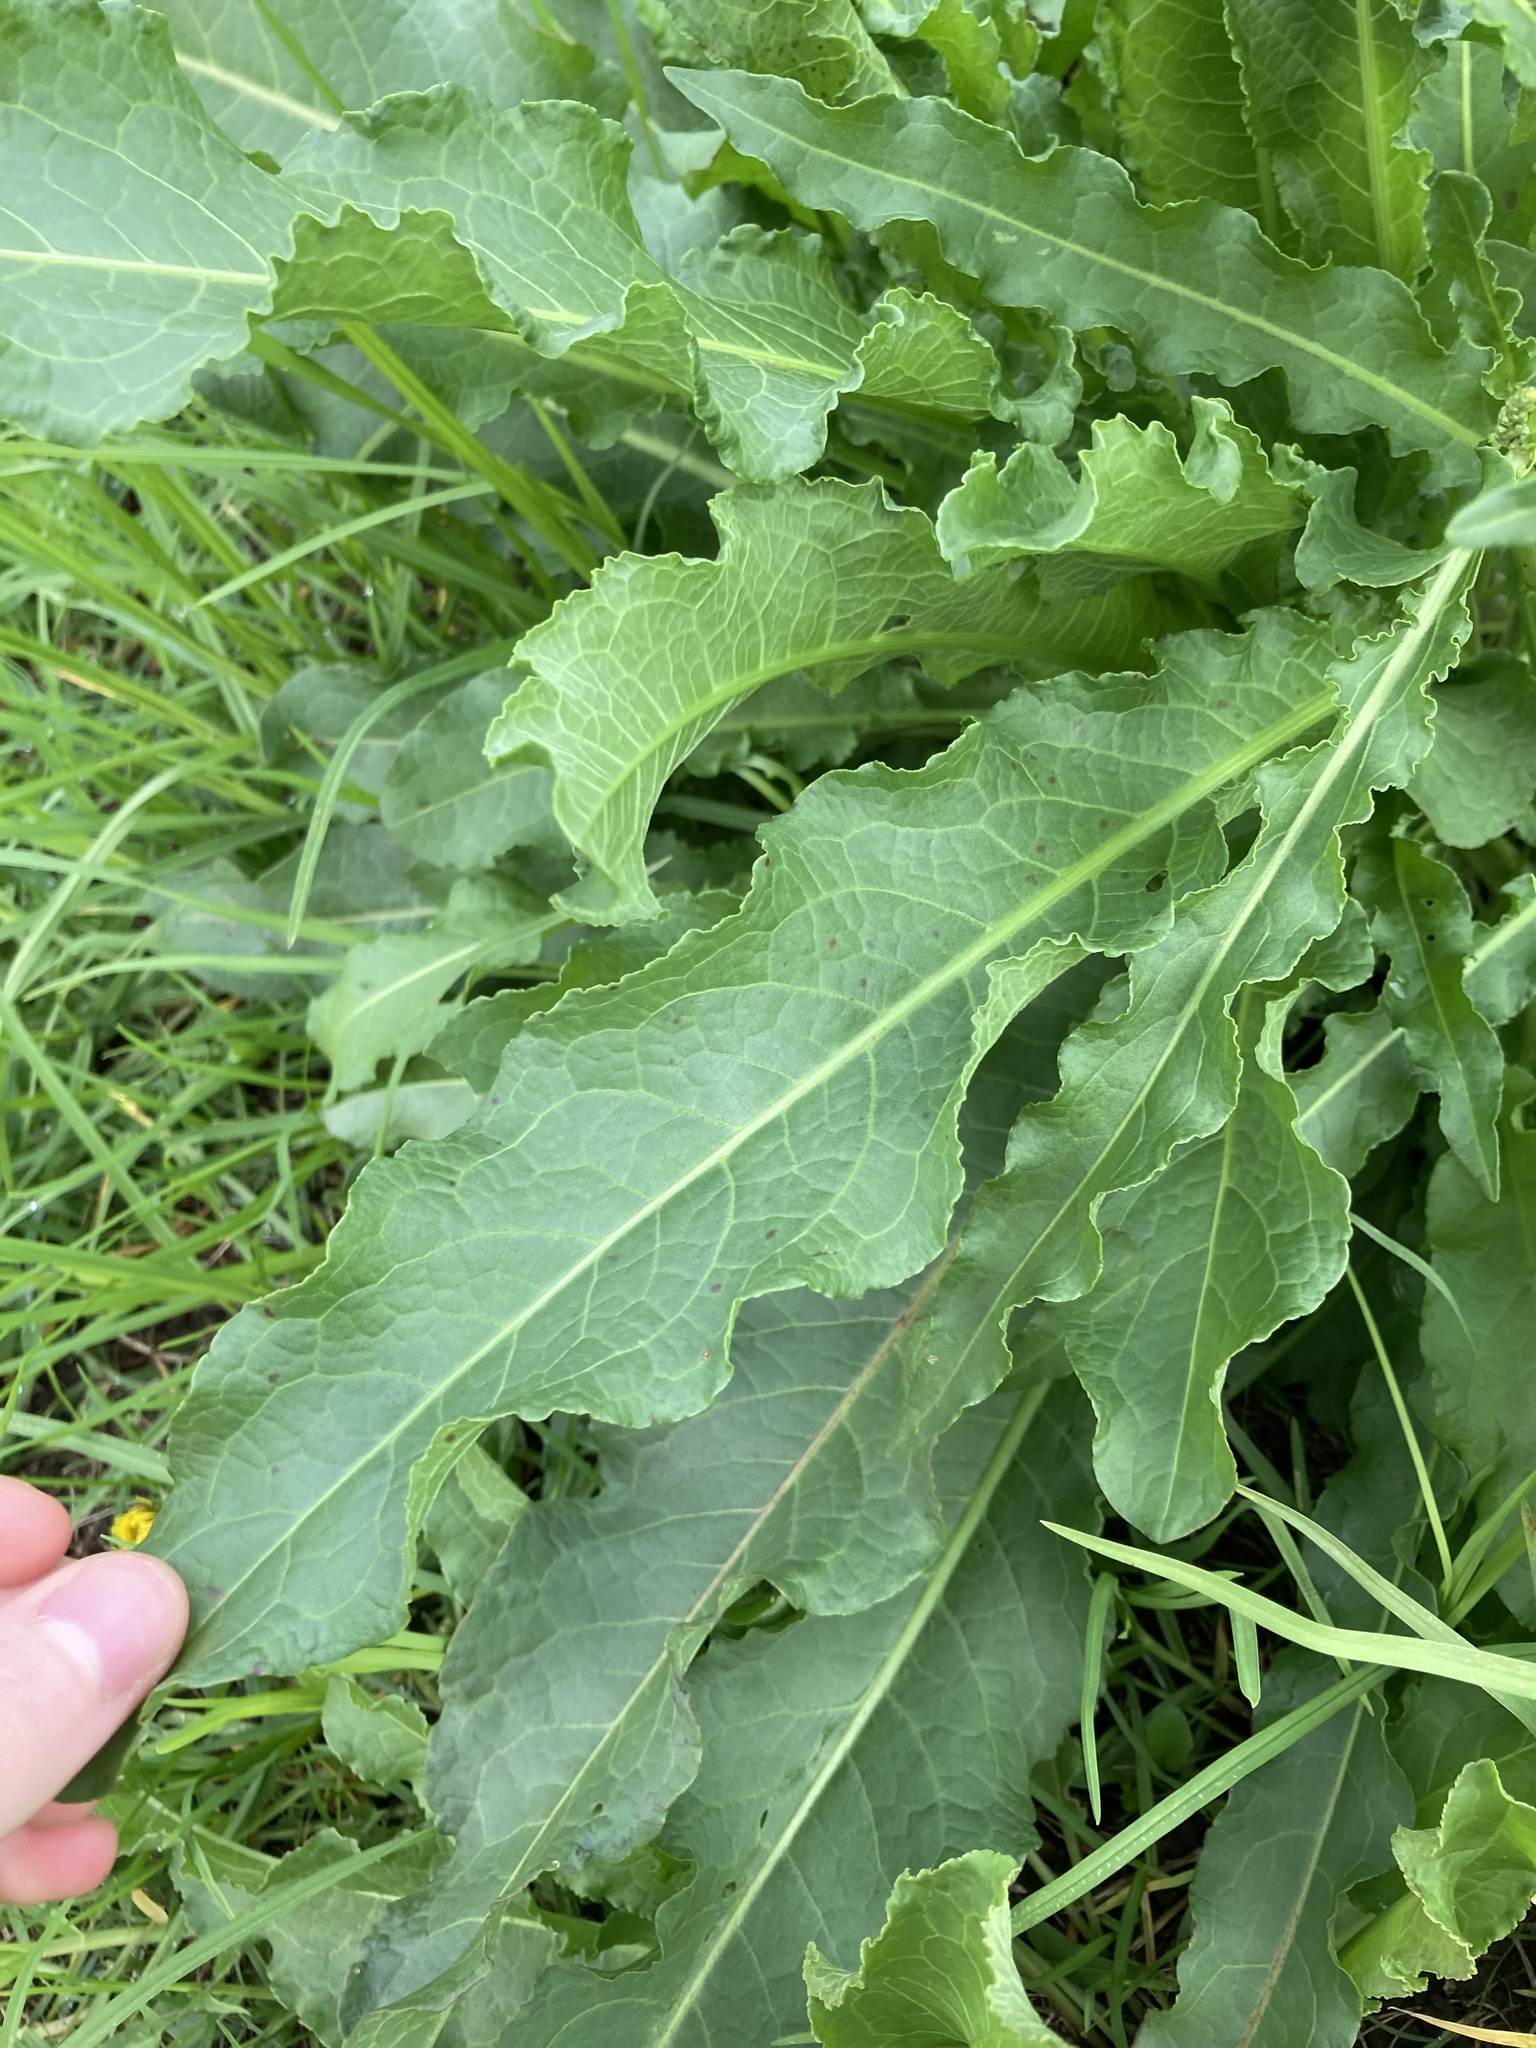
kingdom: Plantae
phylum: Tracheophyta
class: Magnoliopsida
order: Caryophyllales
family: Polygonaceae
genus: Rumex
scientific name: Rumex crispus
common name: Curled dock
